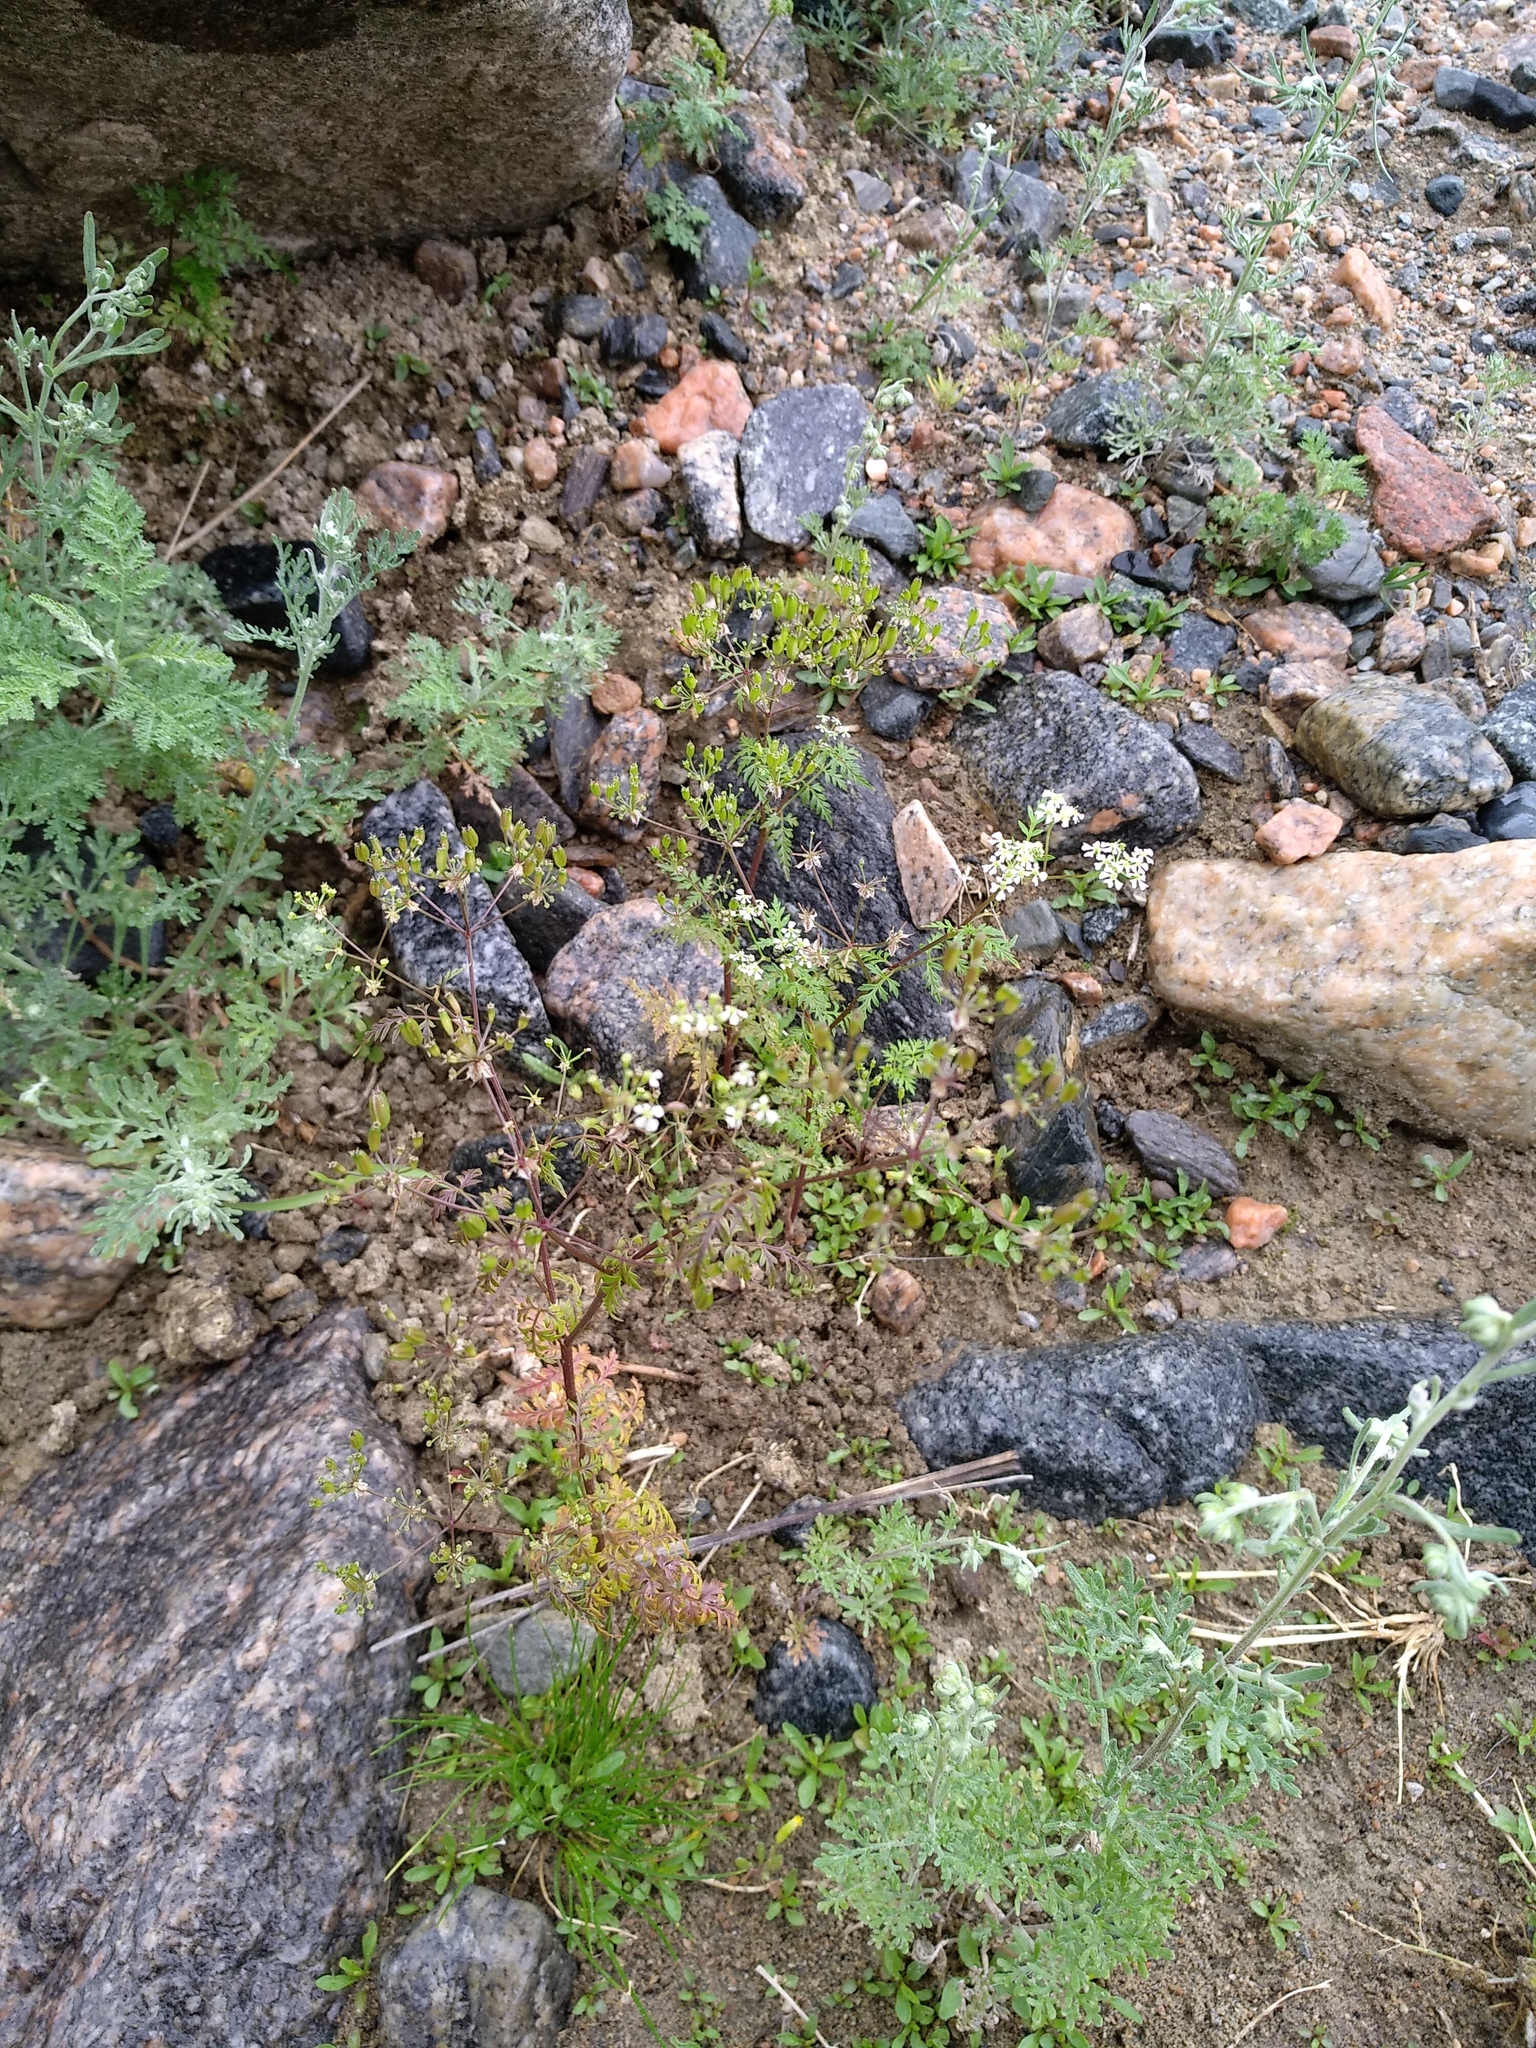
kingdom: Plantae
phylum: Tracheophyta
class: Magnoliopsida
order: Apiales
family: Apiaceae
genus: Sphallerocarpus
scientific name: Sphallerocarpus gracilis
